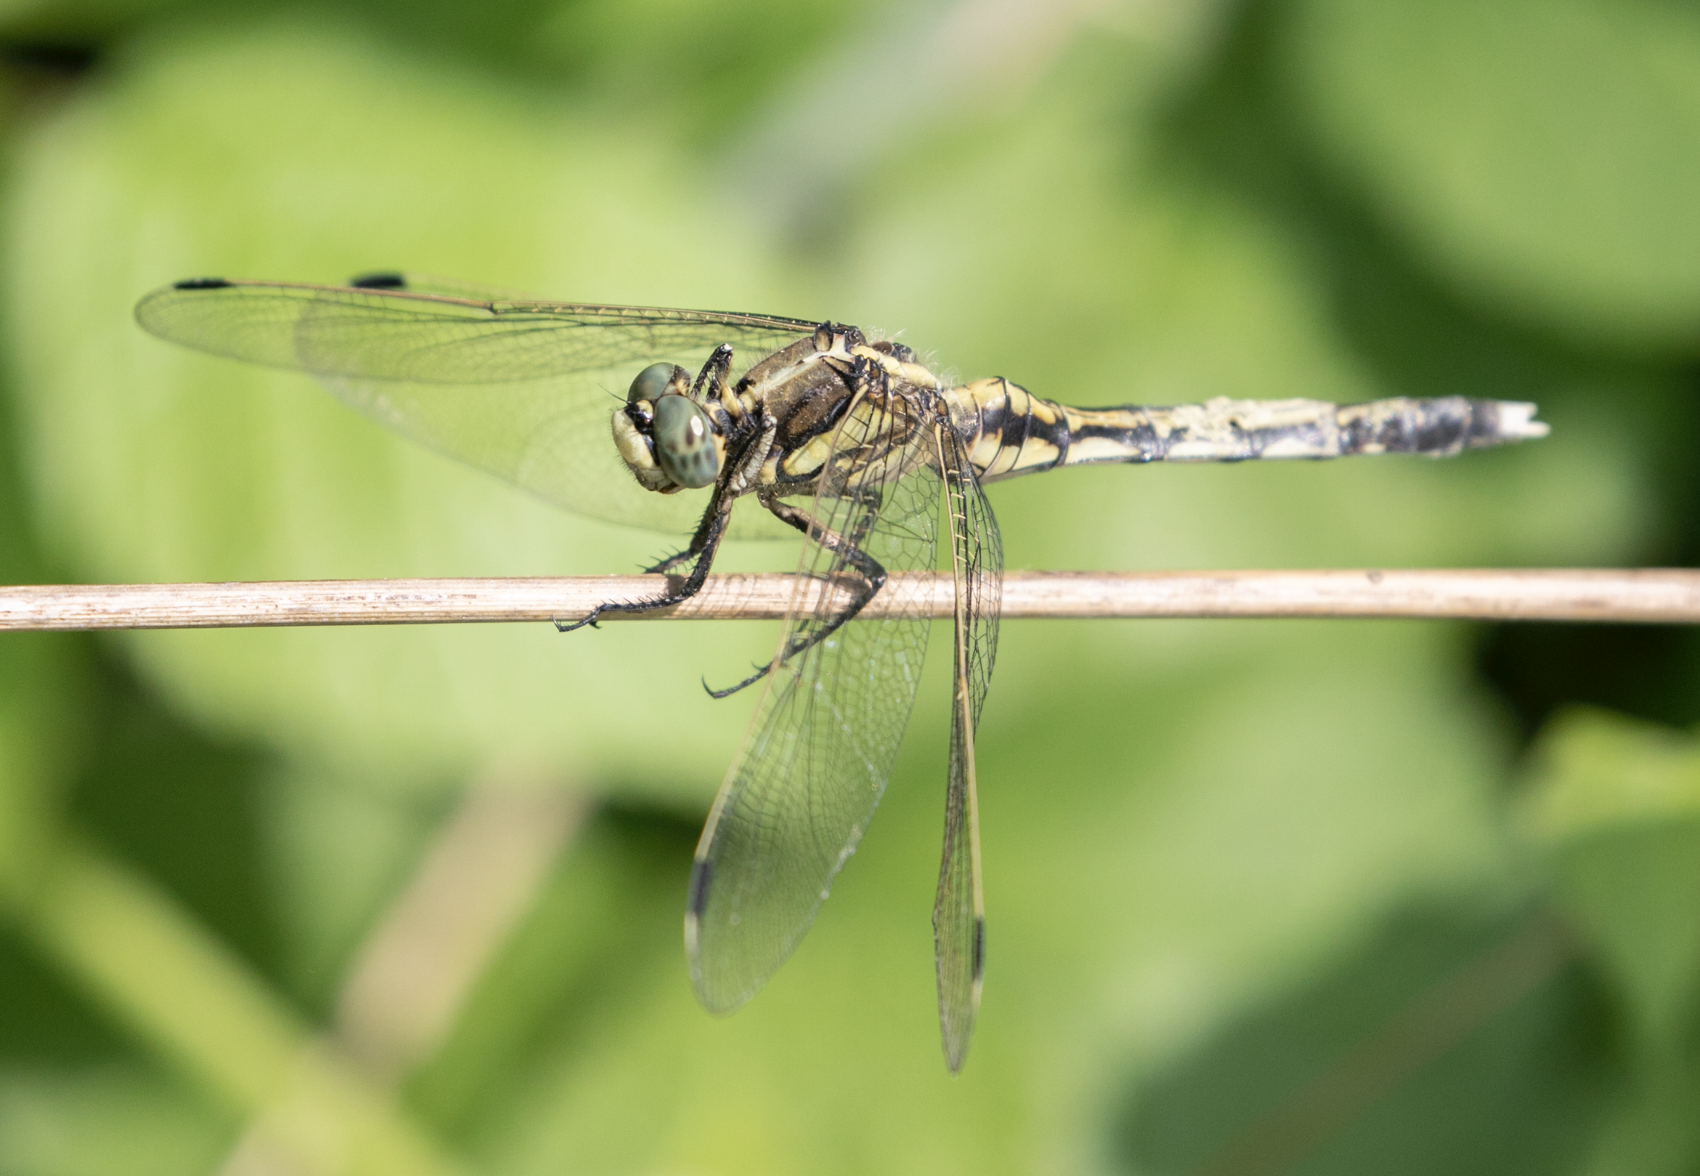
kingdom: Animalia
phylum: Arthropoda
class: Insecta
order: Odonata
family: Libellulidae
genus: Orthetrum
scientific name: Orthetrum albistylum
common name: White-tailed skimmer
